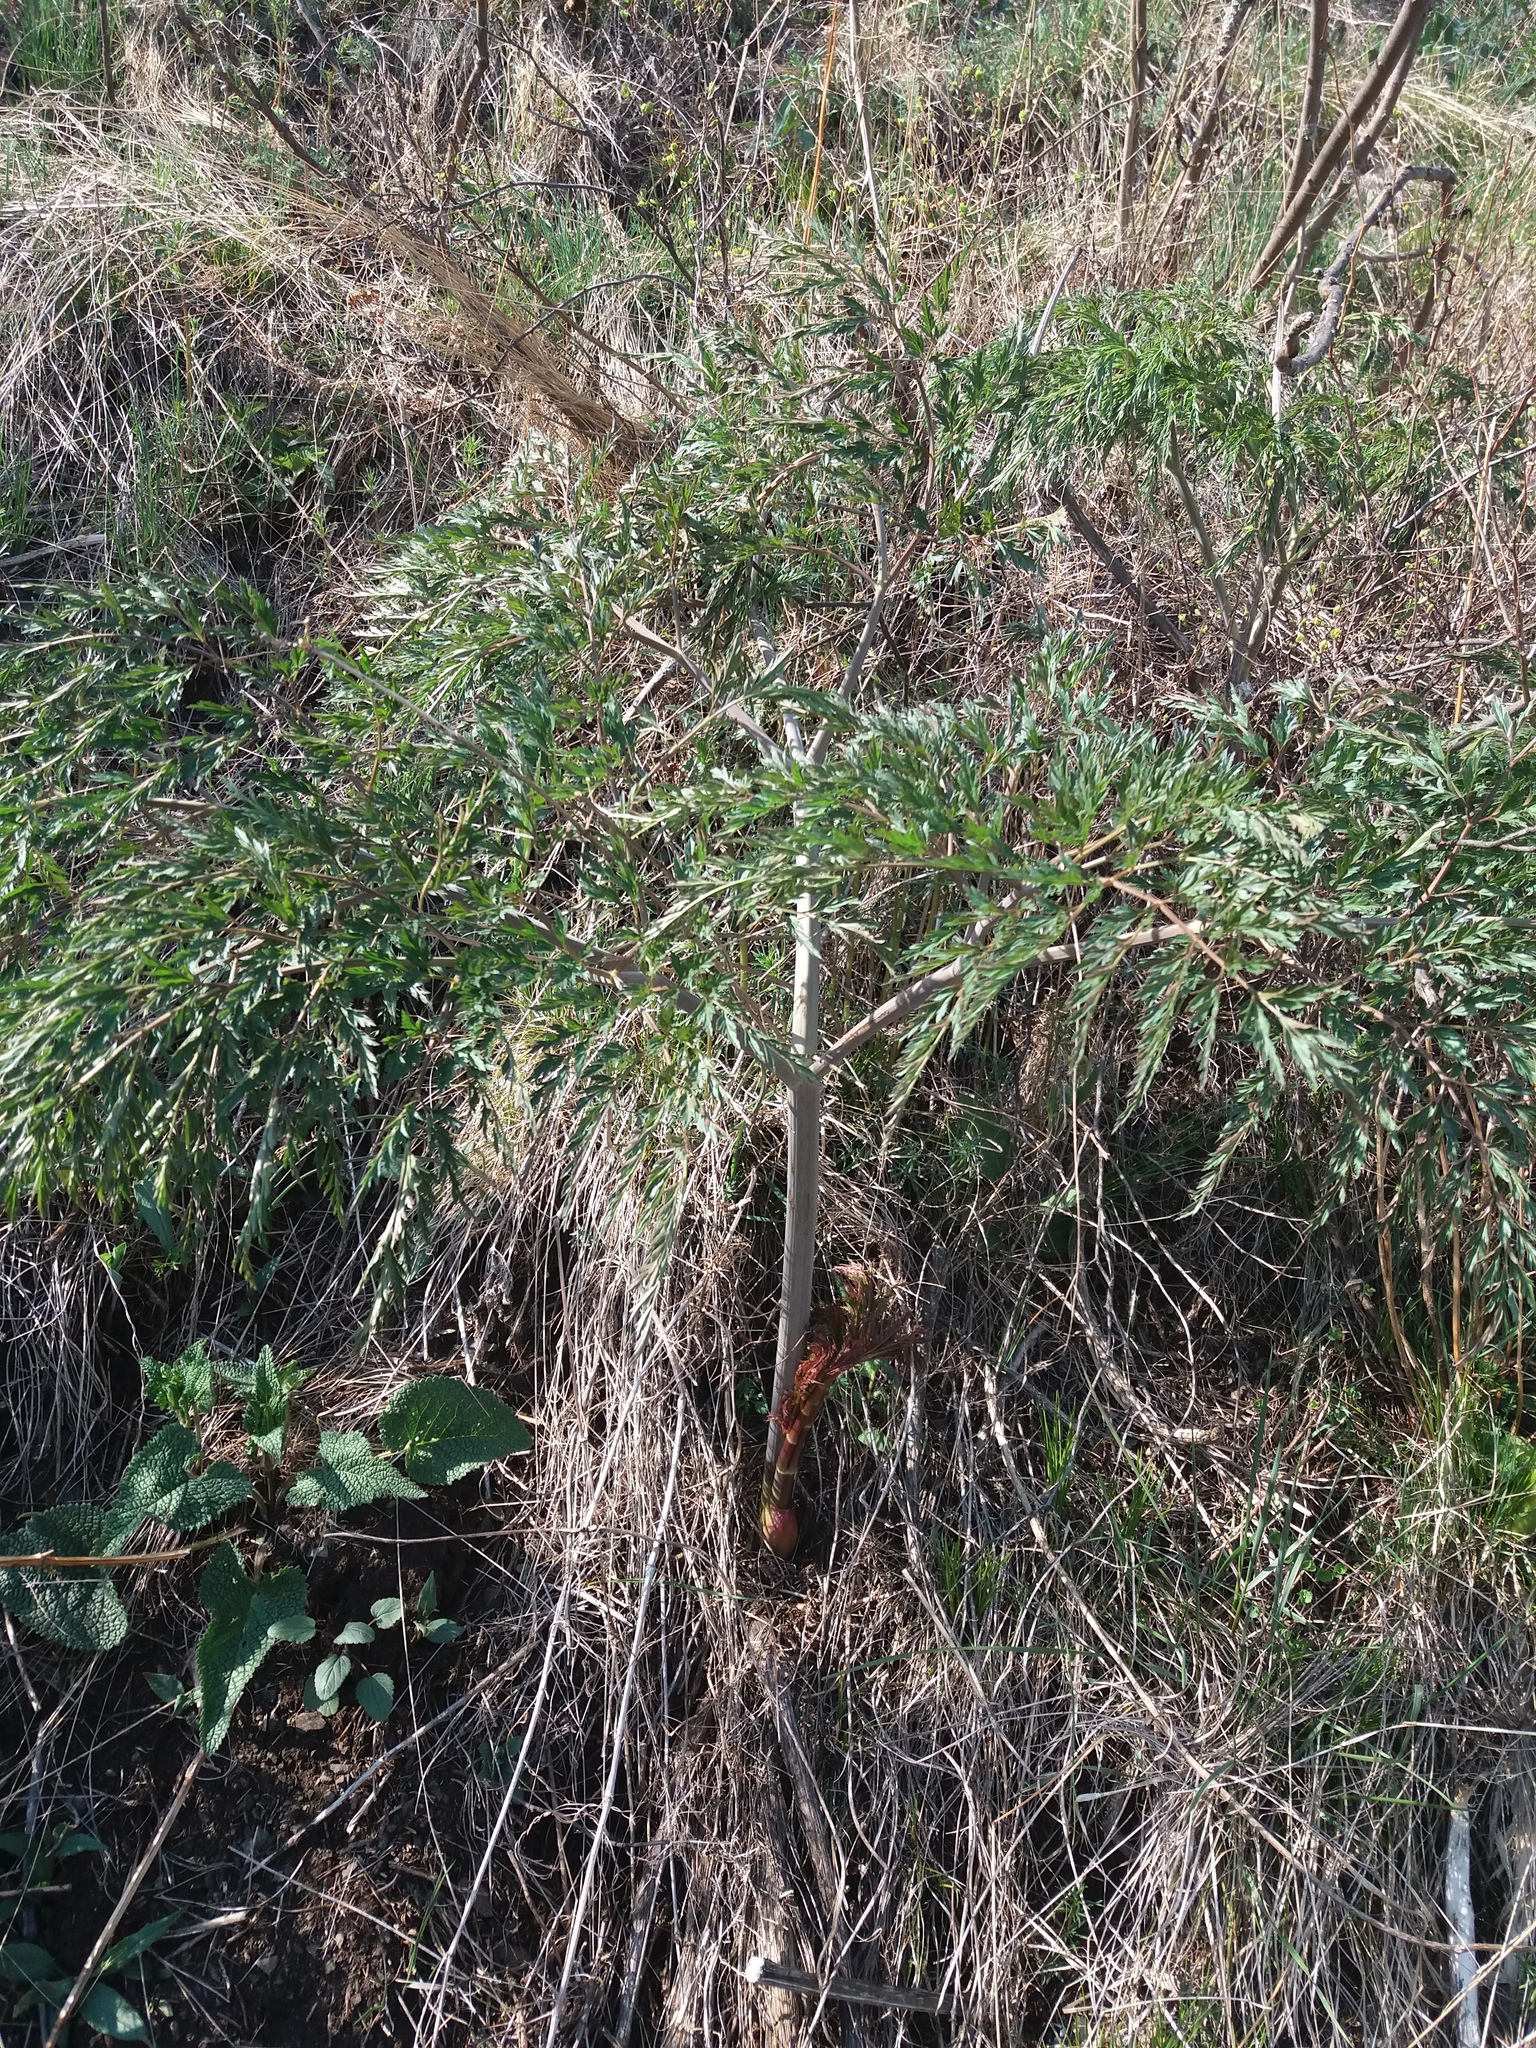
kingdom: Plantae
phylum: Tracheophyta
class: Magnoliopsida
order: Apiales
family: Apiaceae
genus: Ferula
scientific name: Ferula songarica
